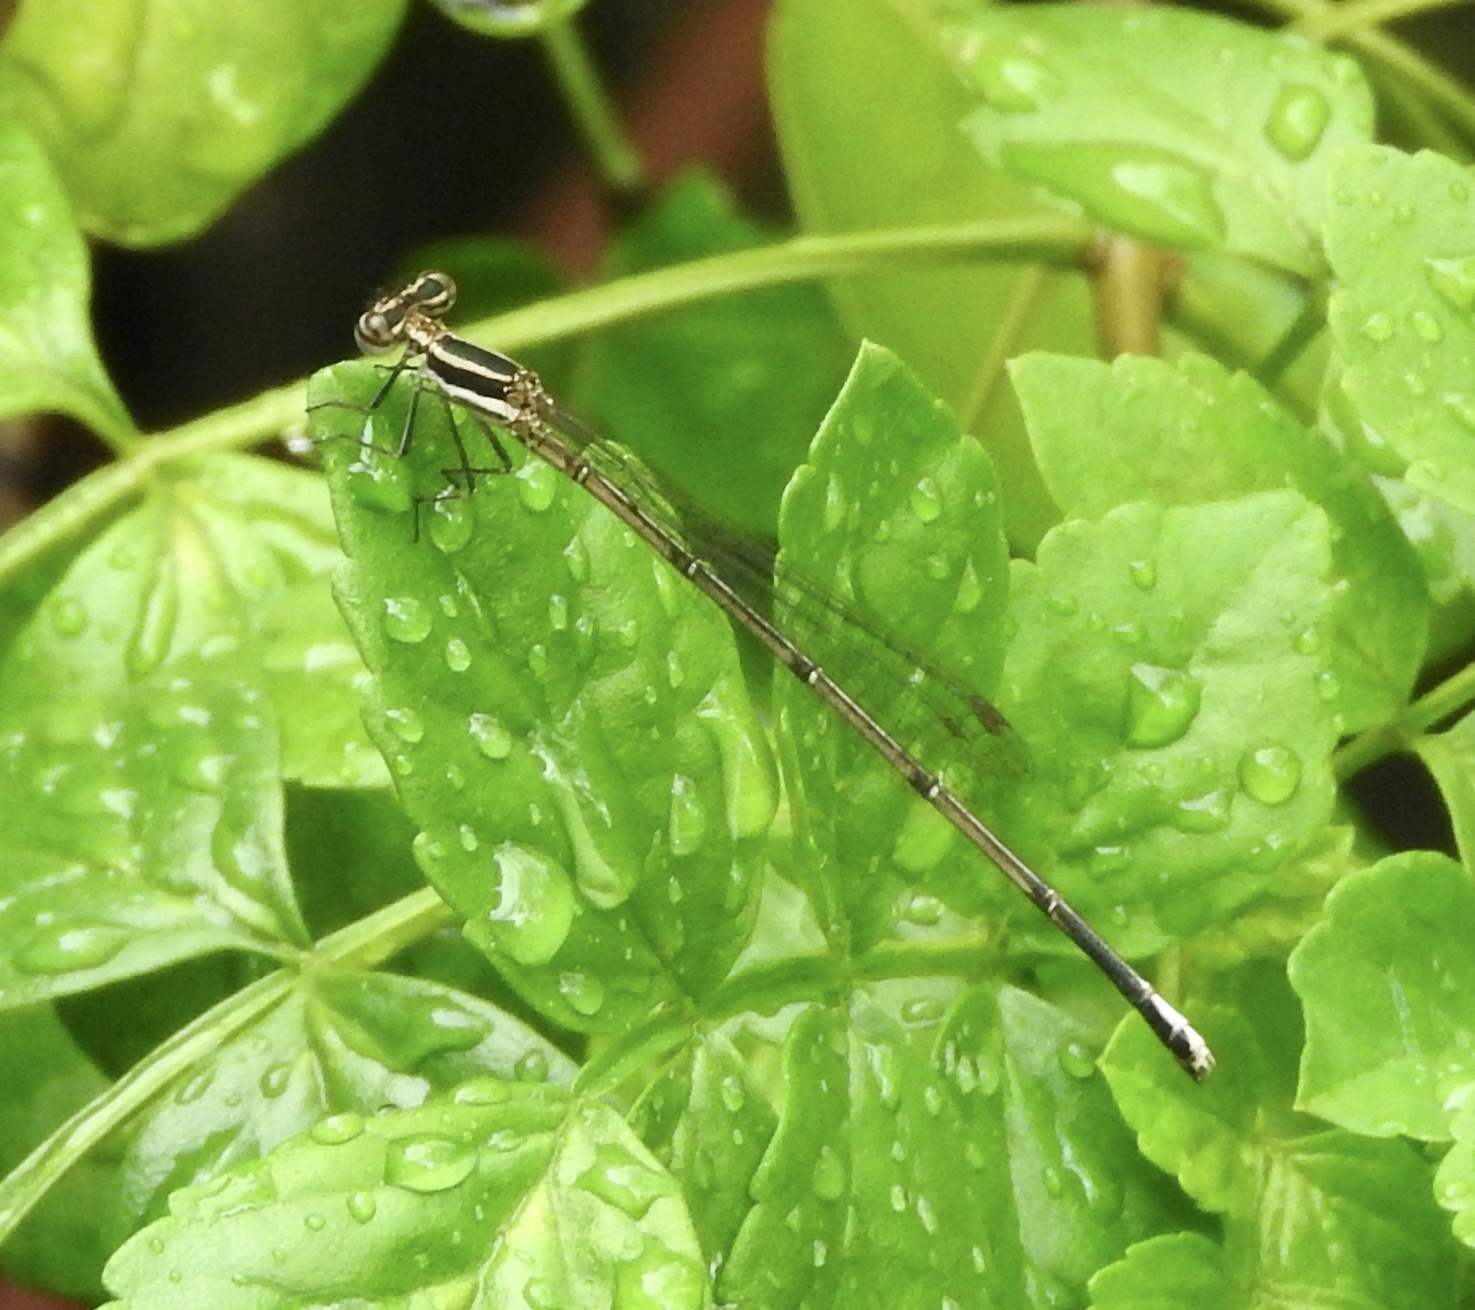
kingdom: Animalia
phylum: Arthropoda
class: Insecta
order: Odonata
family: Platycnemididae
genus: Elattoneura
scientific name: Elattoneura glauca
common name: Common threadtail
